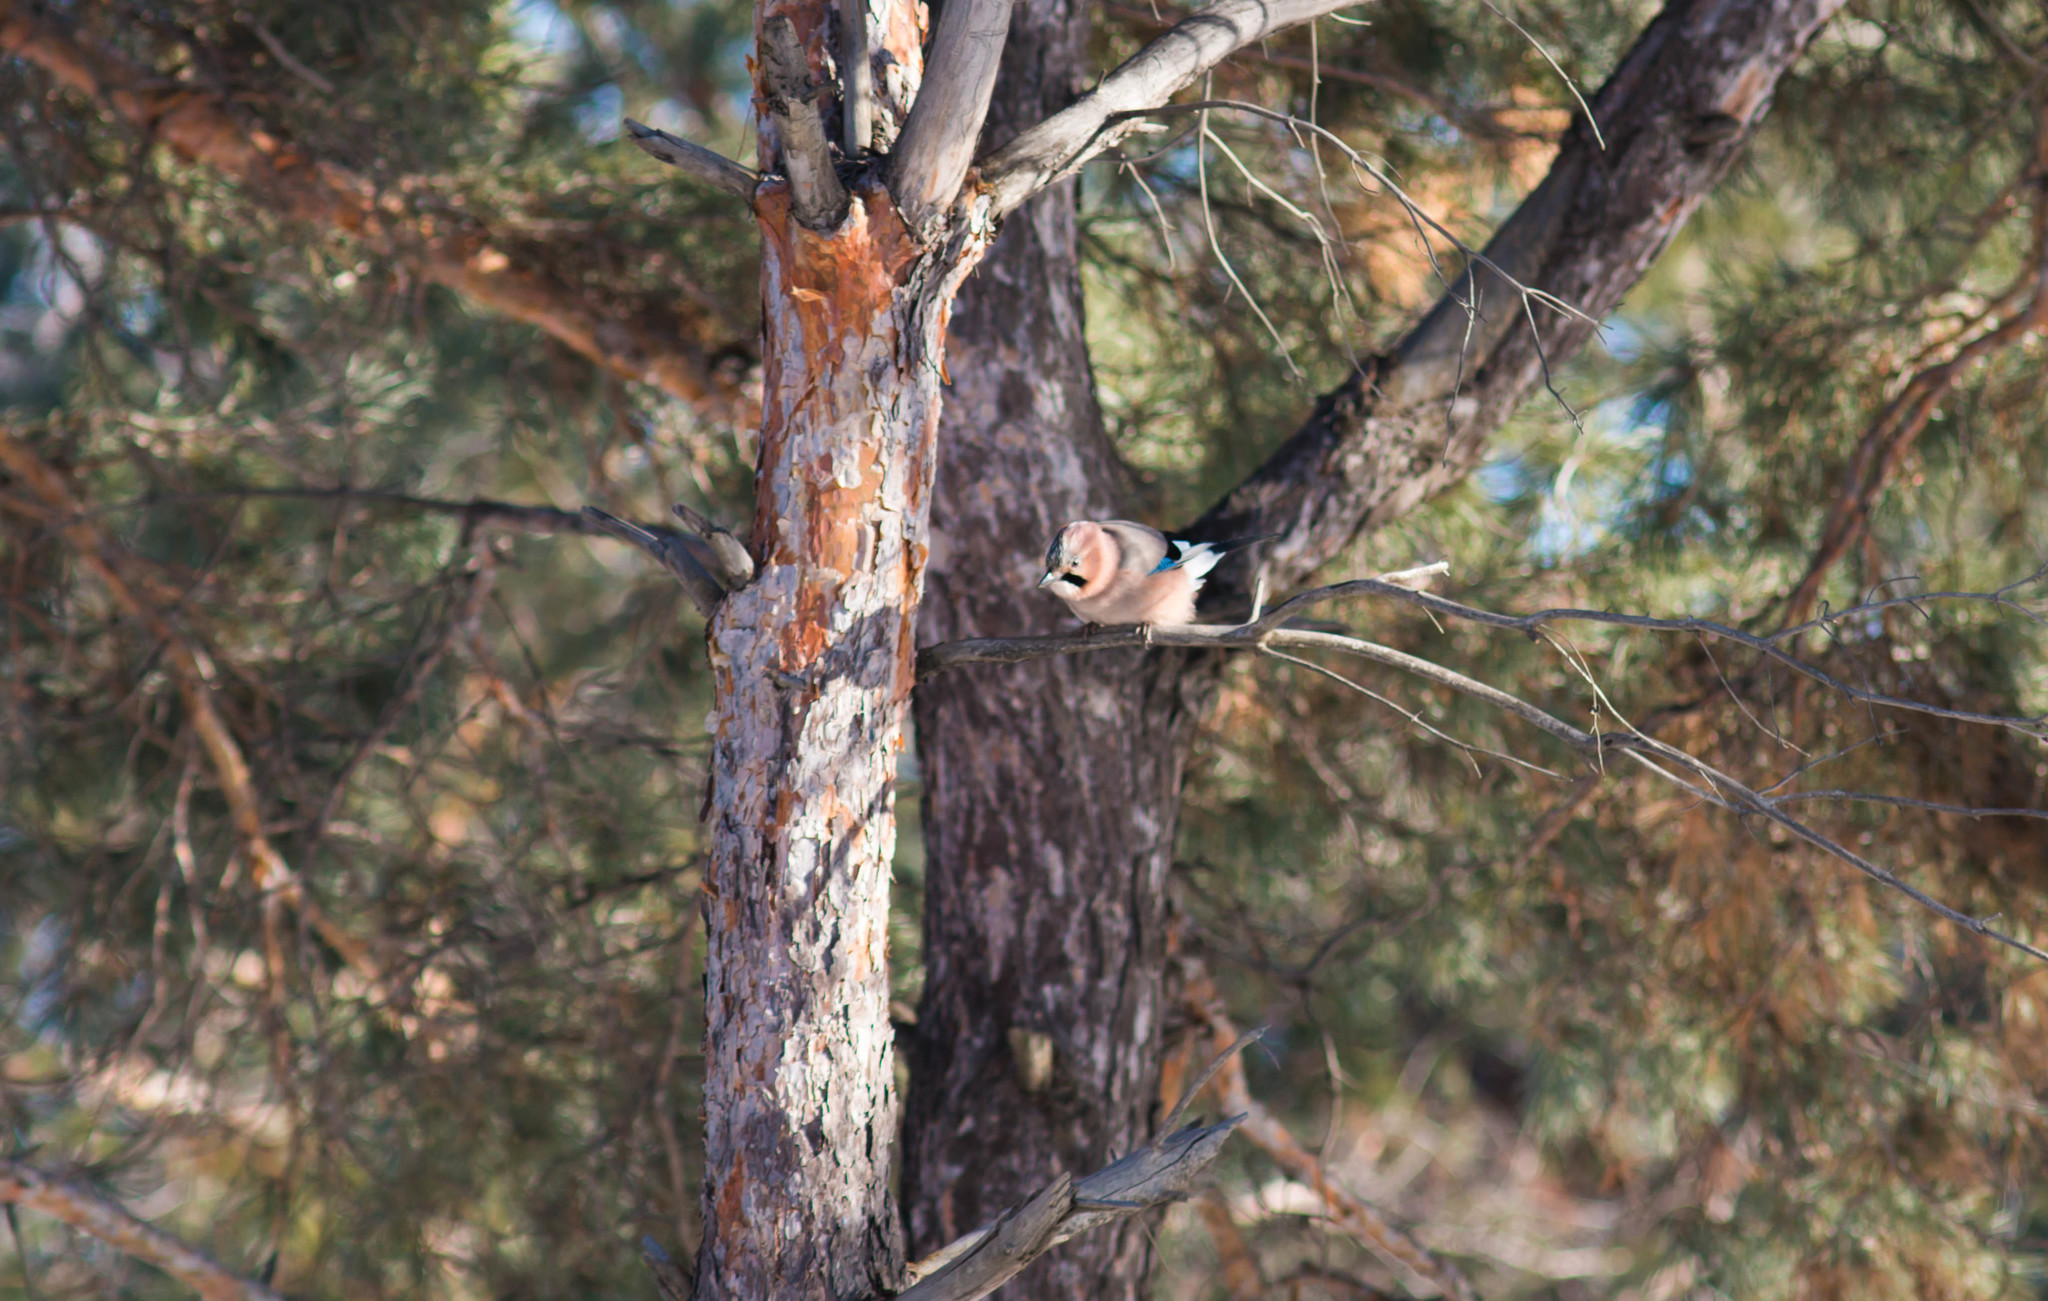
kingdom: Animalia
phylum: Chordata
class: Aves
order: Passeriformes
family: Corvidae
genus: Garrulus
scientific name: Garrulus glandarius
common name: Eurasian jay
